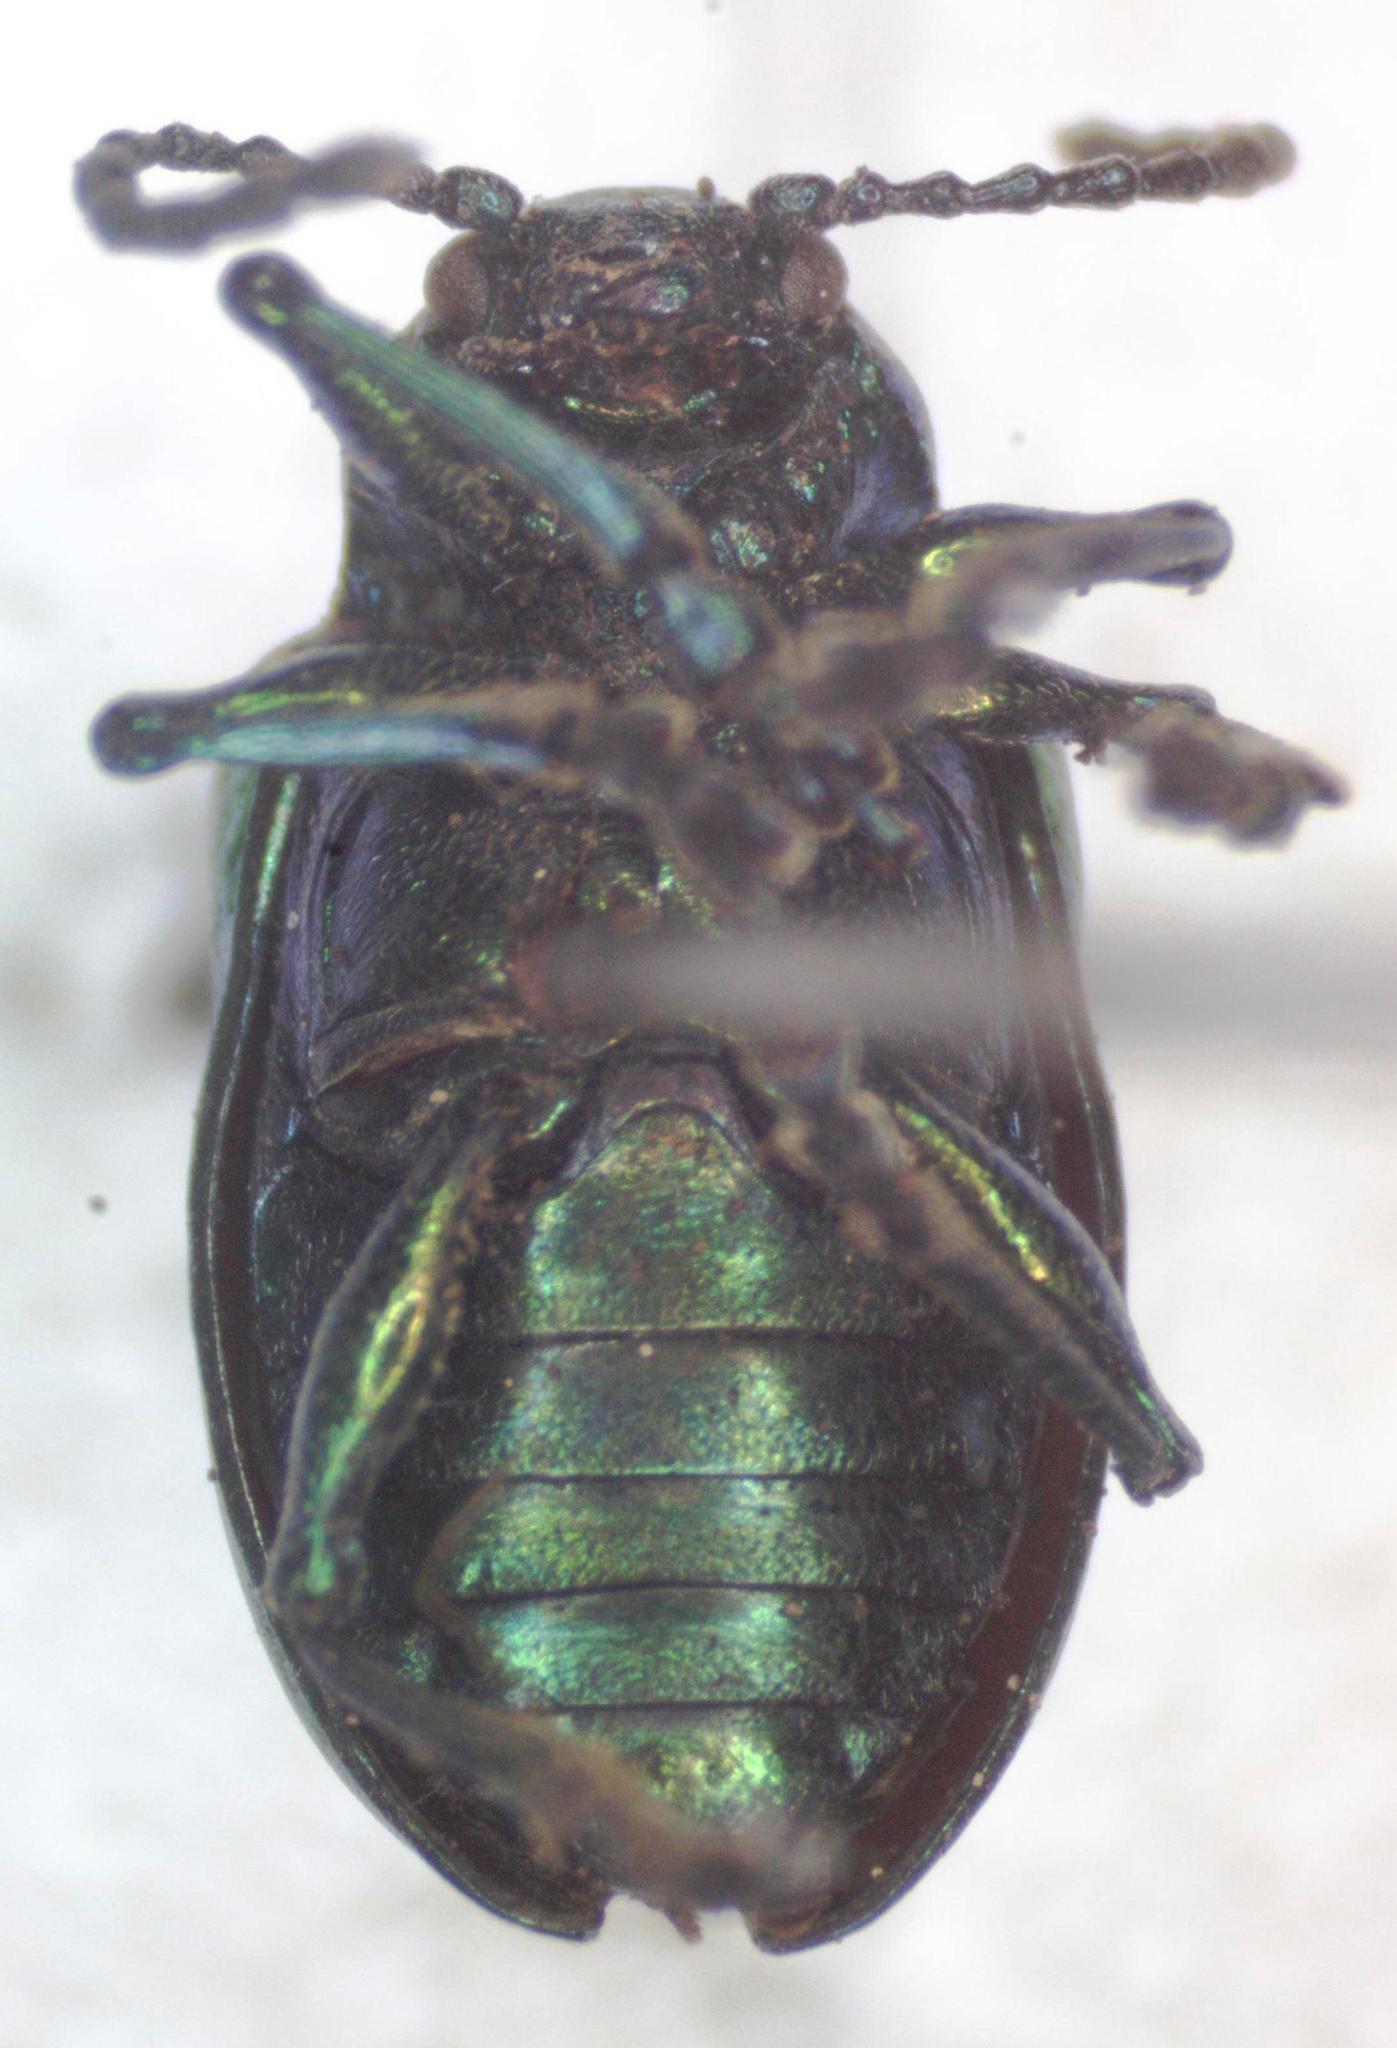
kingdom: Animalia
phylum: Arthropoda
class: Insecta
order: Coleoptera
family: Chrysomelidae
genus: Chrysochus
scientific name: Chrysochus auratus
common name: Dogbane leaf beetle
